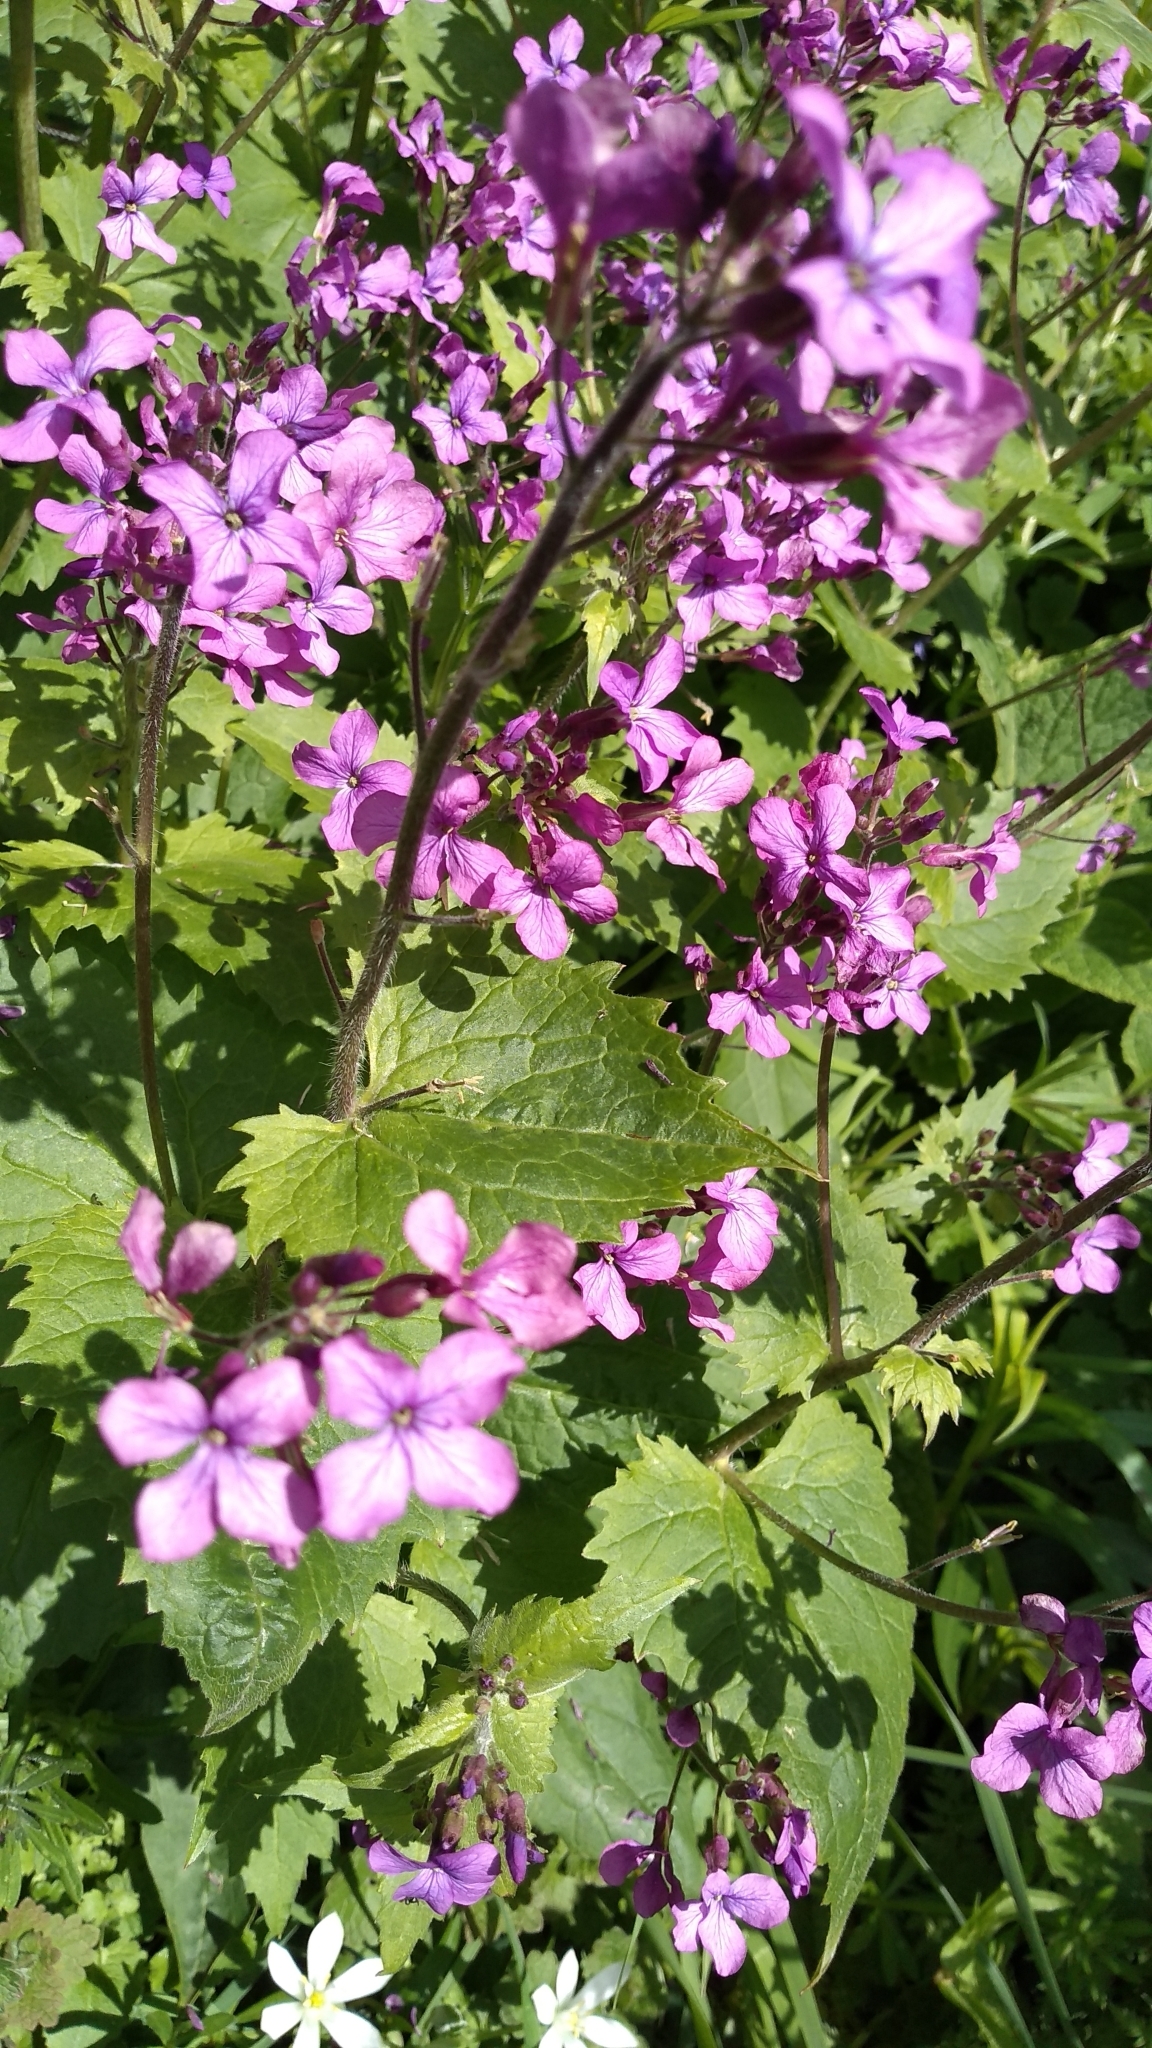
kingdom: Plantae
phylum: Tracheophyta
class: Magnoliopsida
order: Brassicales
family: Brassicaceae
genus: Lunaria
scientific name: Lunaria annua
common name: Honesty
